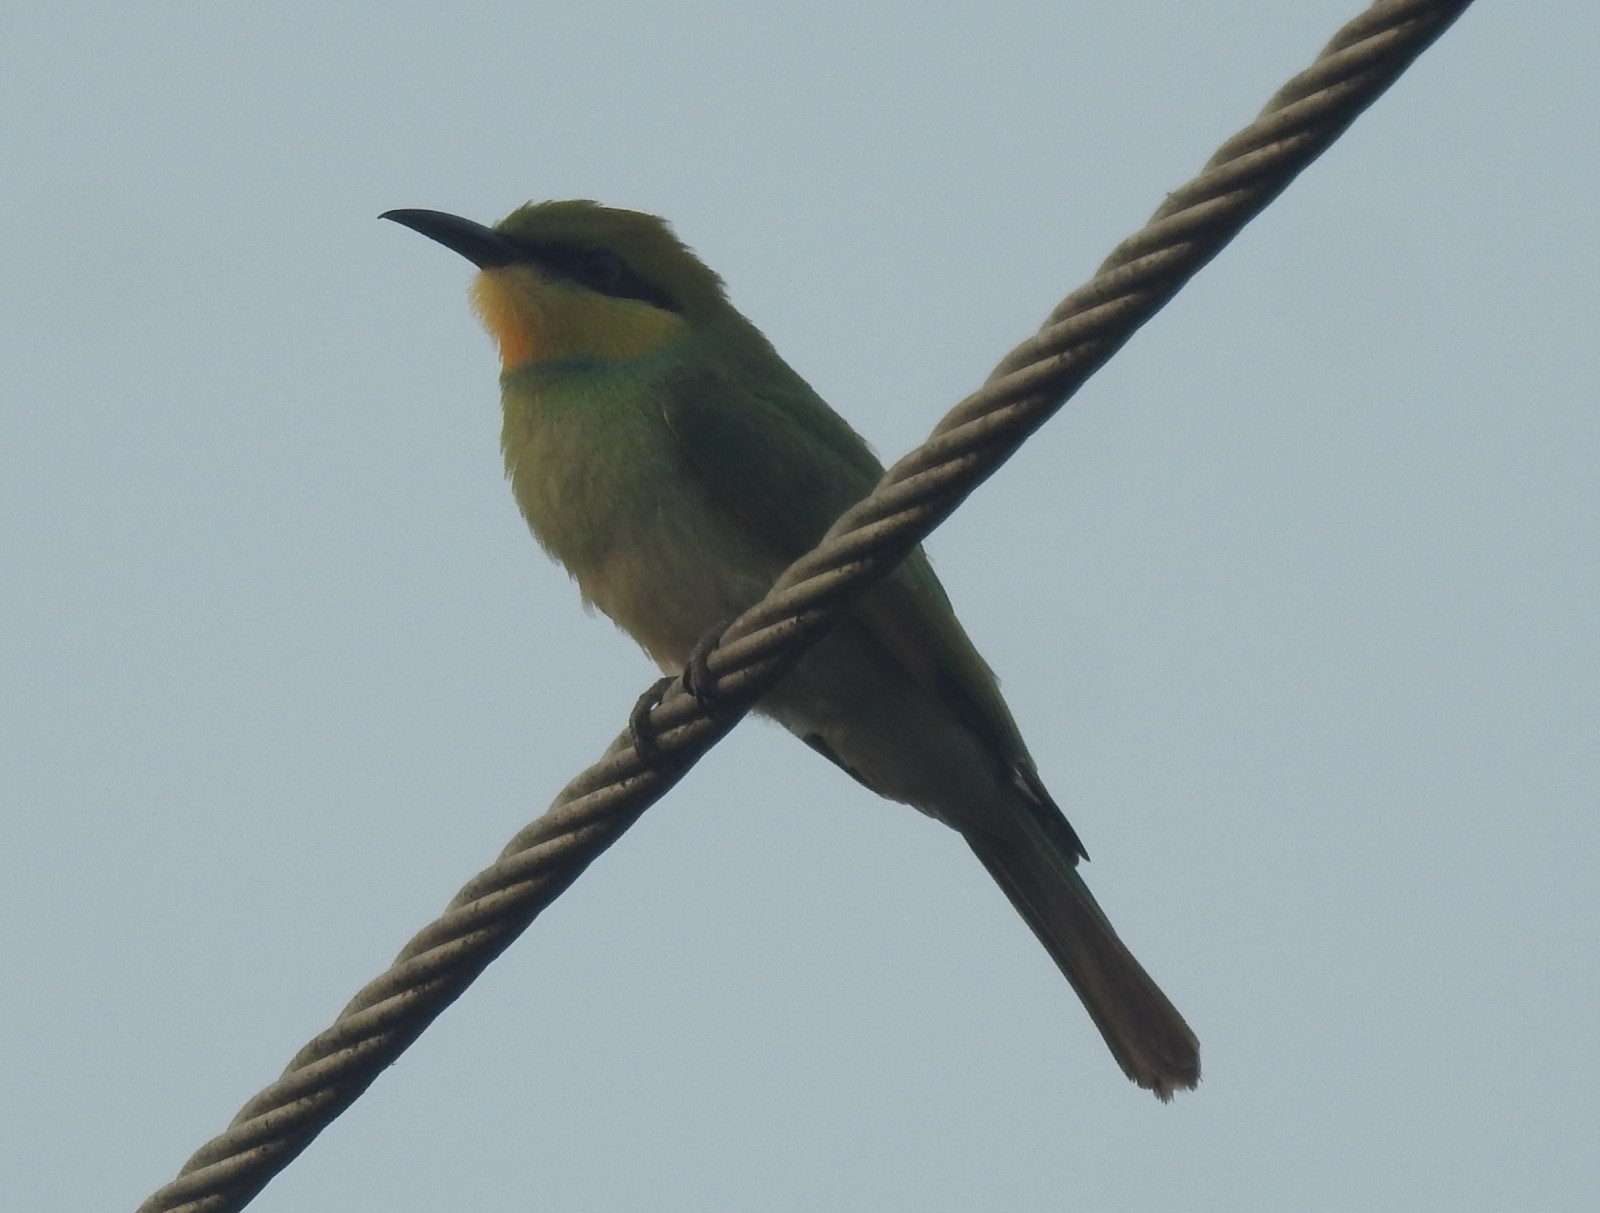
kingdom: Animalia
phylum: Chordata
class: Aves
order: Coraciiformes
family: Meropidae
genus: Merops
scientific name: Merops orientalis
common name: Green bee-eater
